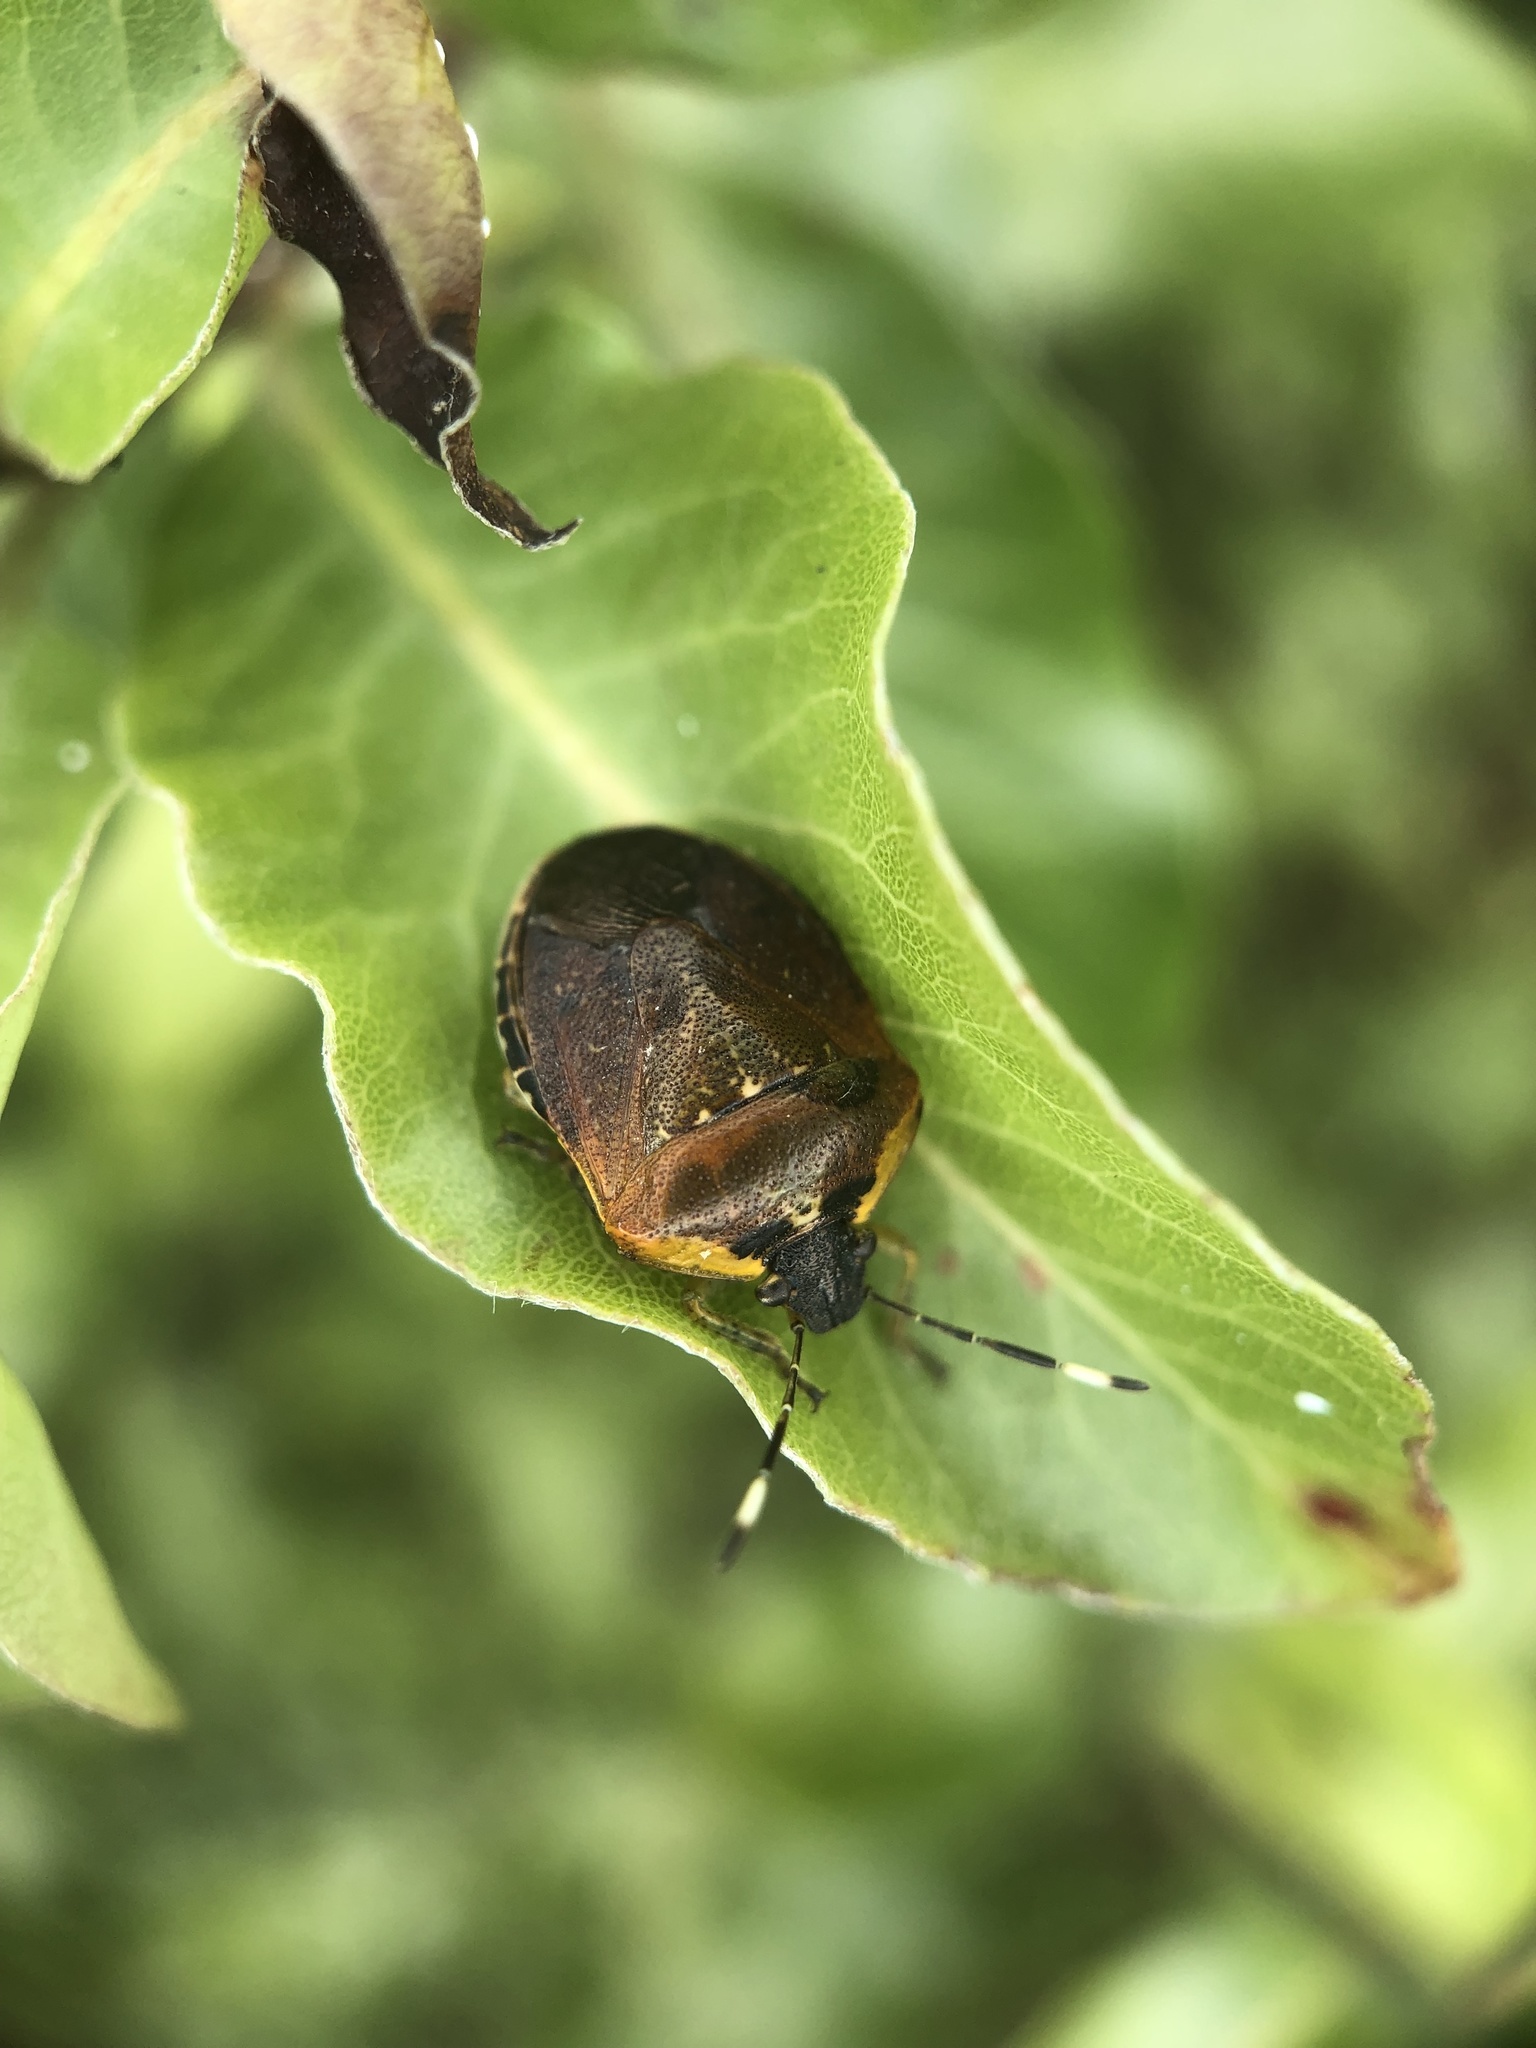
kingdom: Animalia
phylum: Arthropoda
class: Insecta
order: Hemiptera
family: Pentatomidae
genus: Monteithiella
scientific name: Monteithiella
